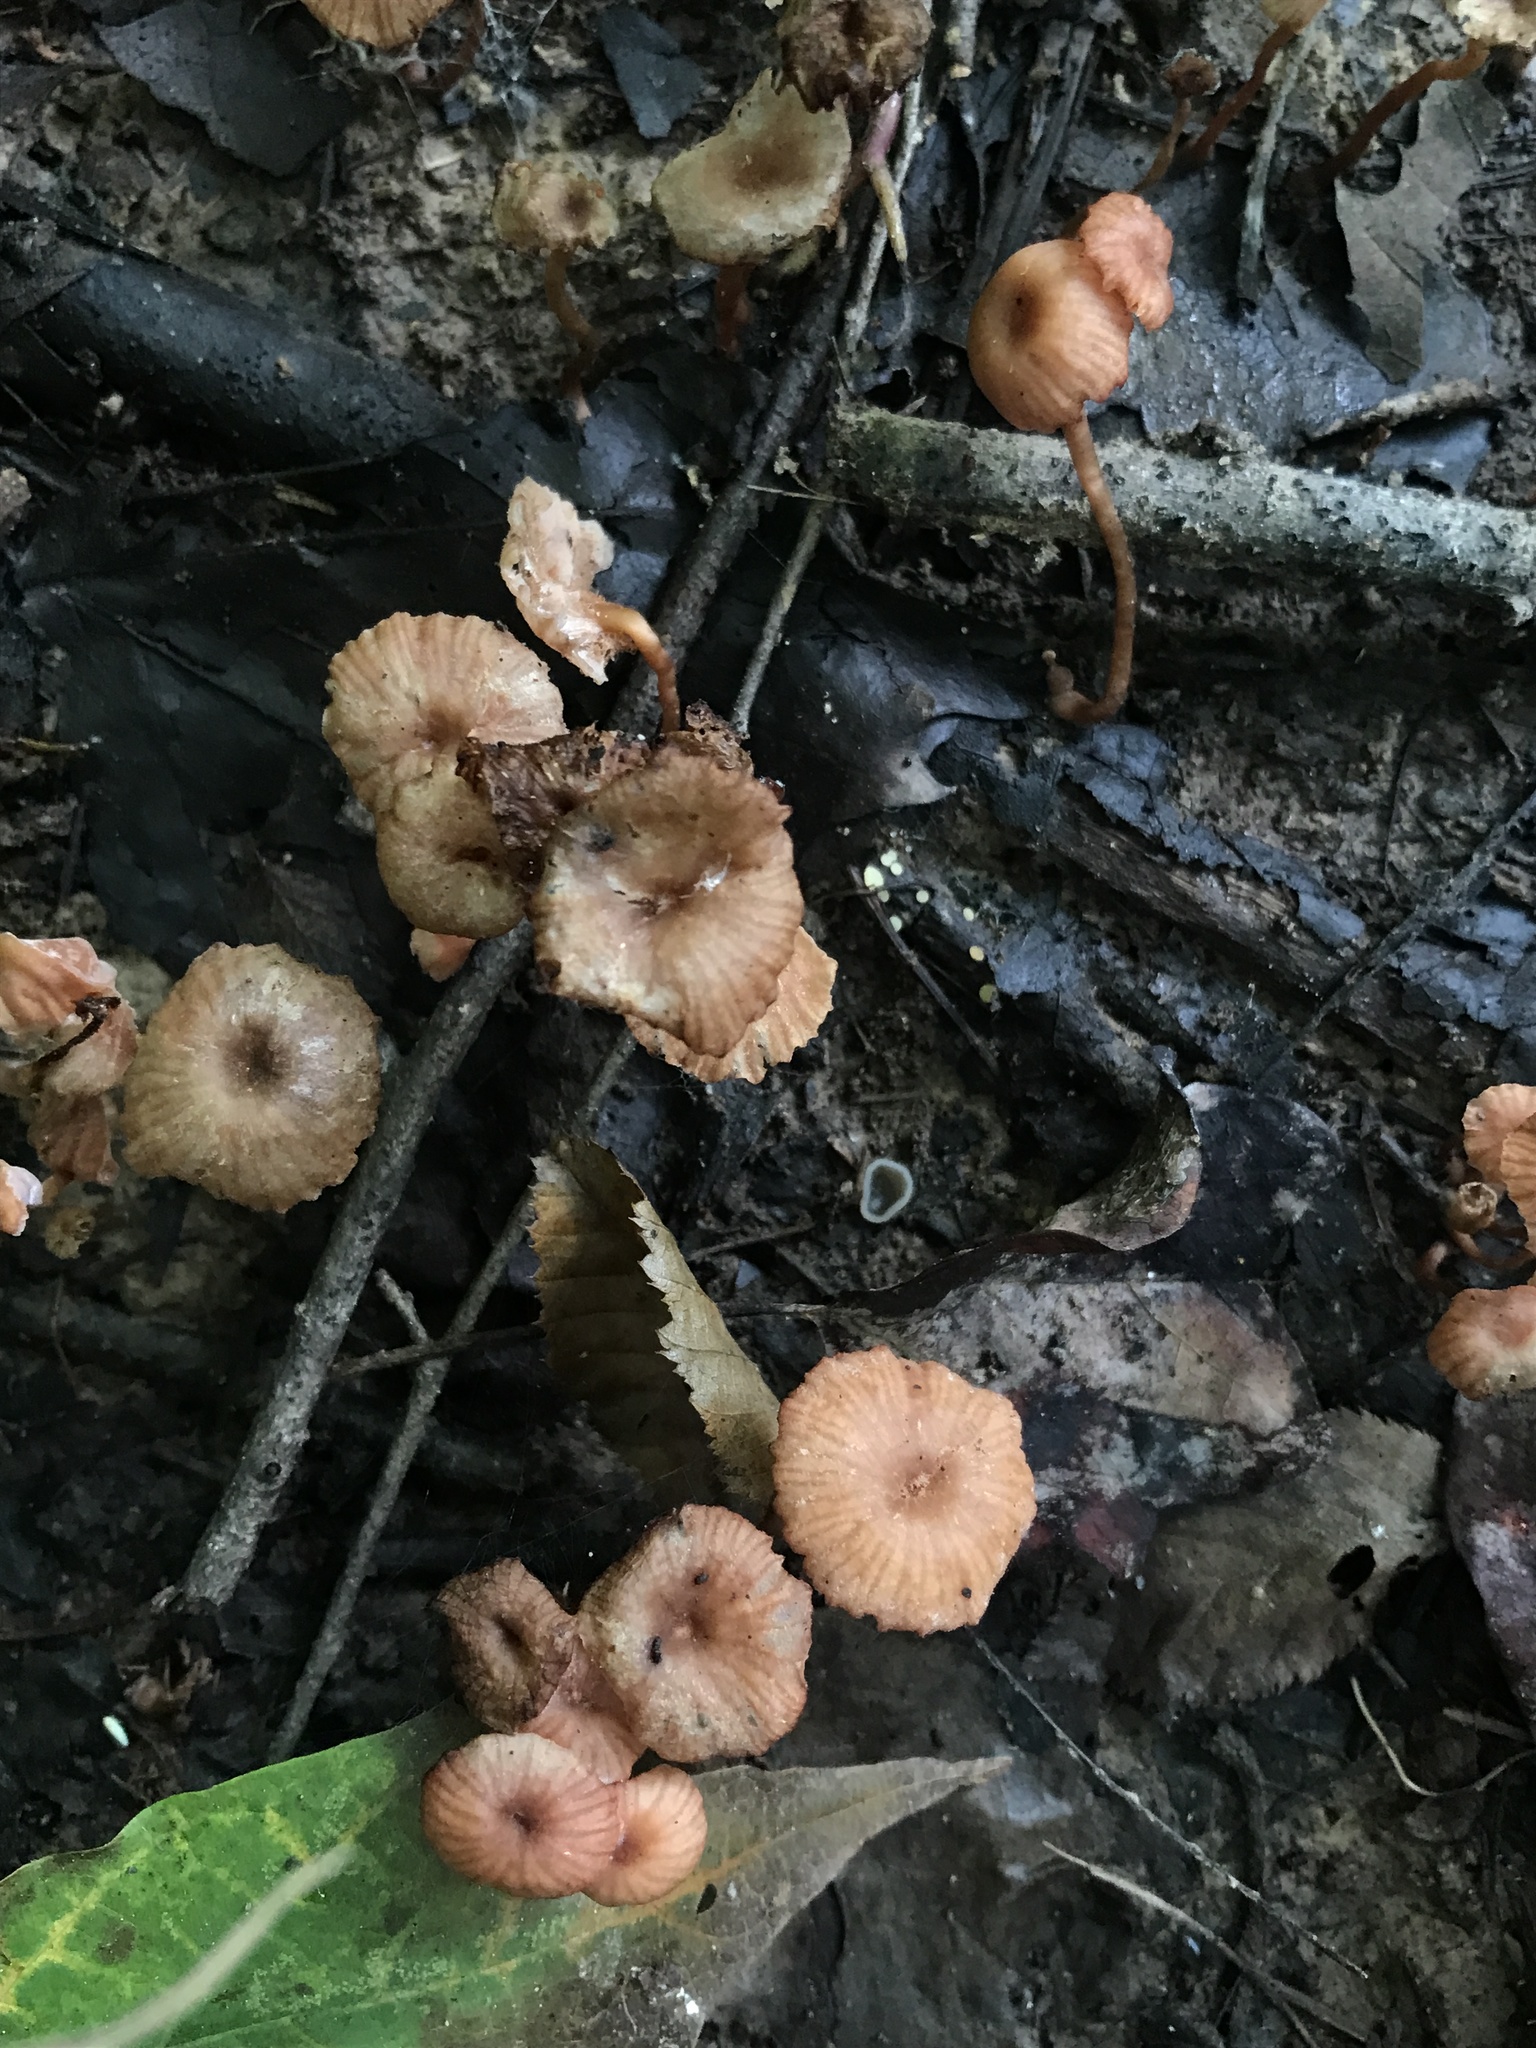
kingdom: Fungi
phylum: Basidiomycota
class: Agaricomycetes
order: Agaricales
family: Hydnangiaceae
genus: Laccaria
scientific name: Laccaria laccata
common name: Deceiver
